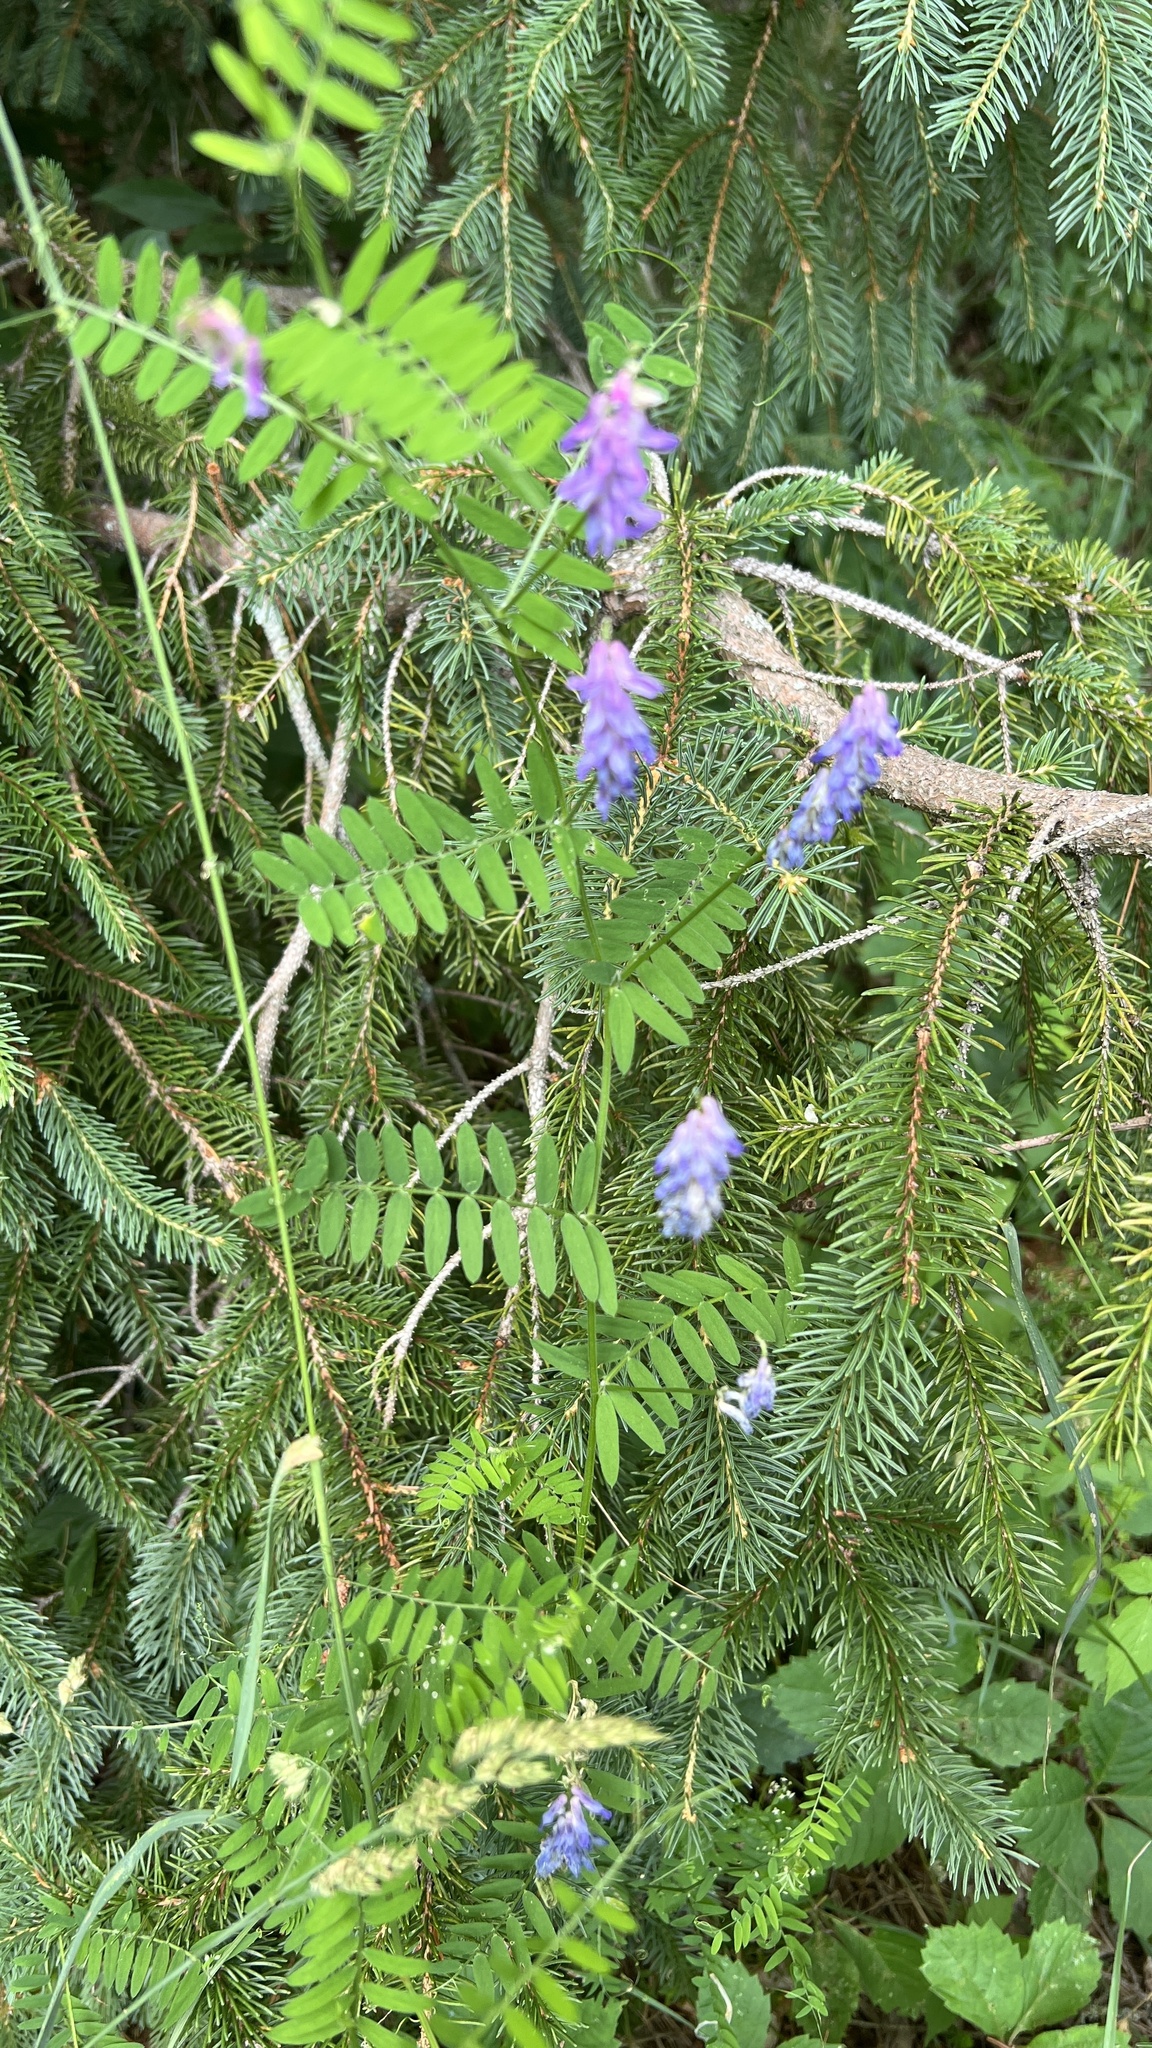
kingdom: Plantae
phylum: Tracheophyta
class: Magnoliopsida
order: Fabales
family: Fabaceae
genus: Vicia
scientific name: Vicia cracca
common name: Bird vetch
